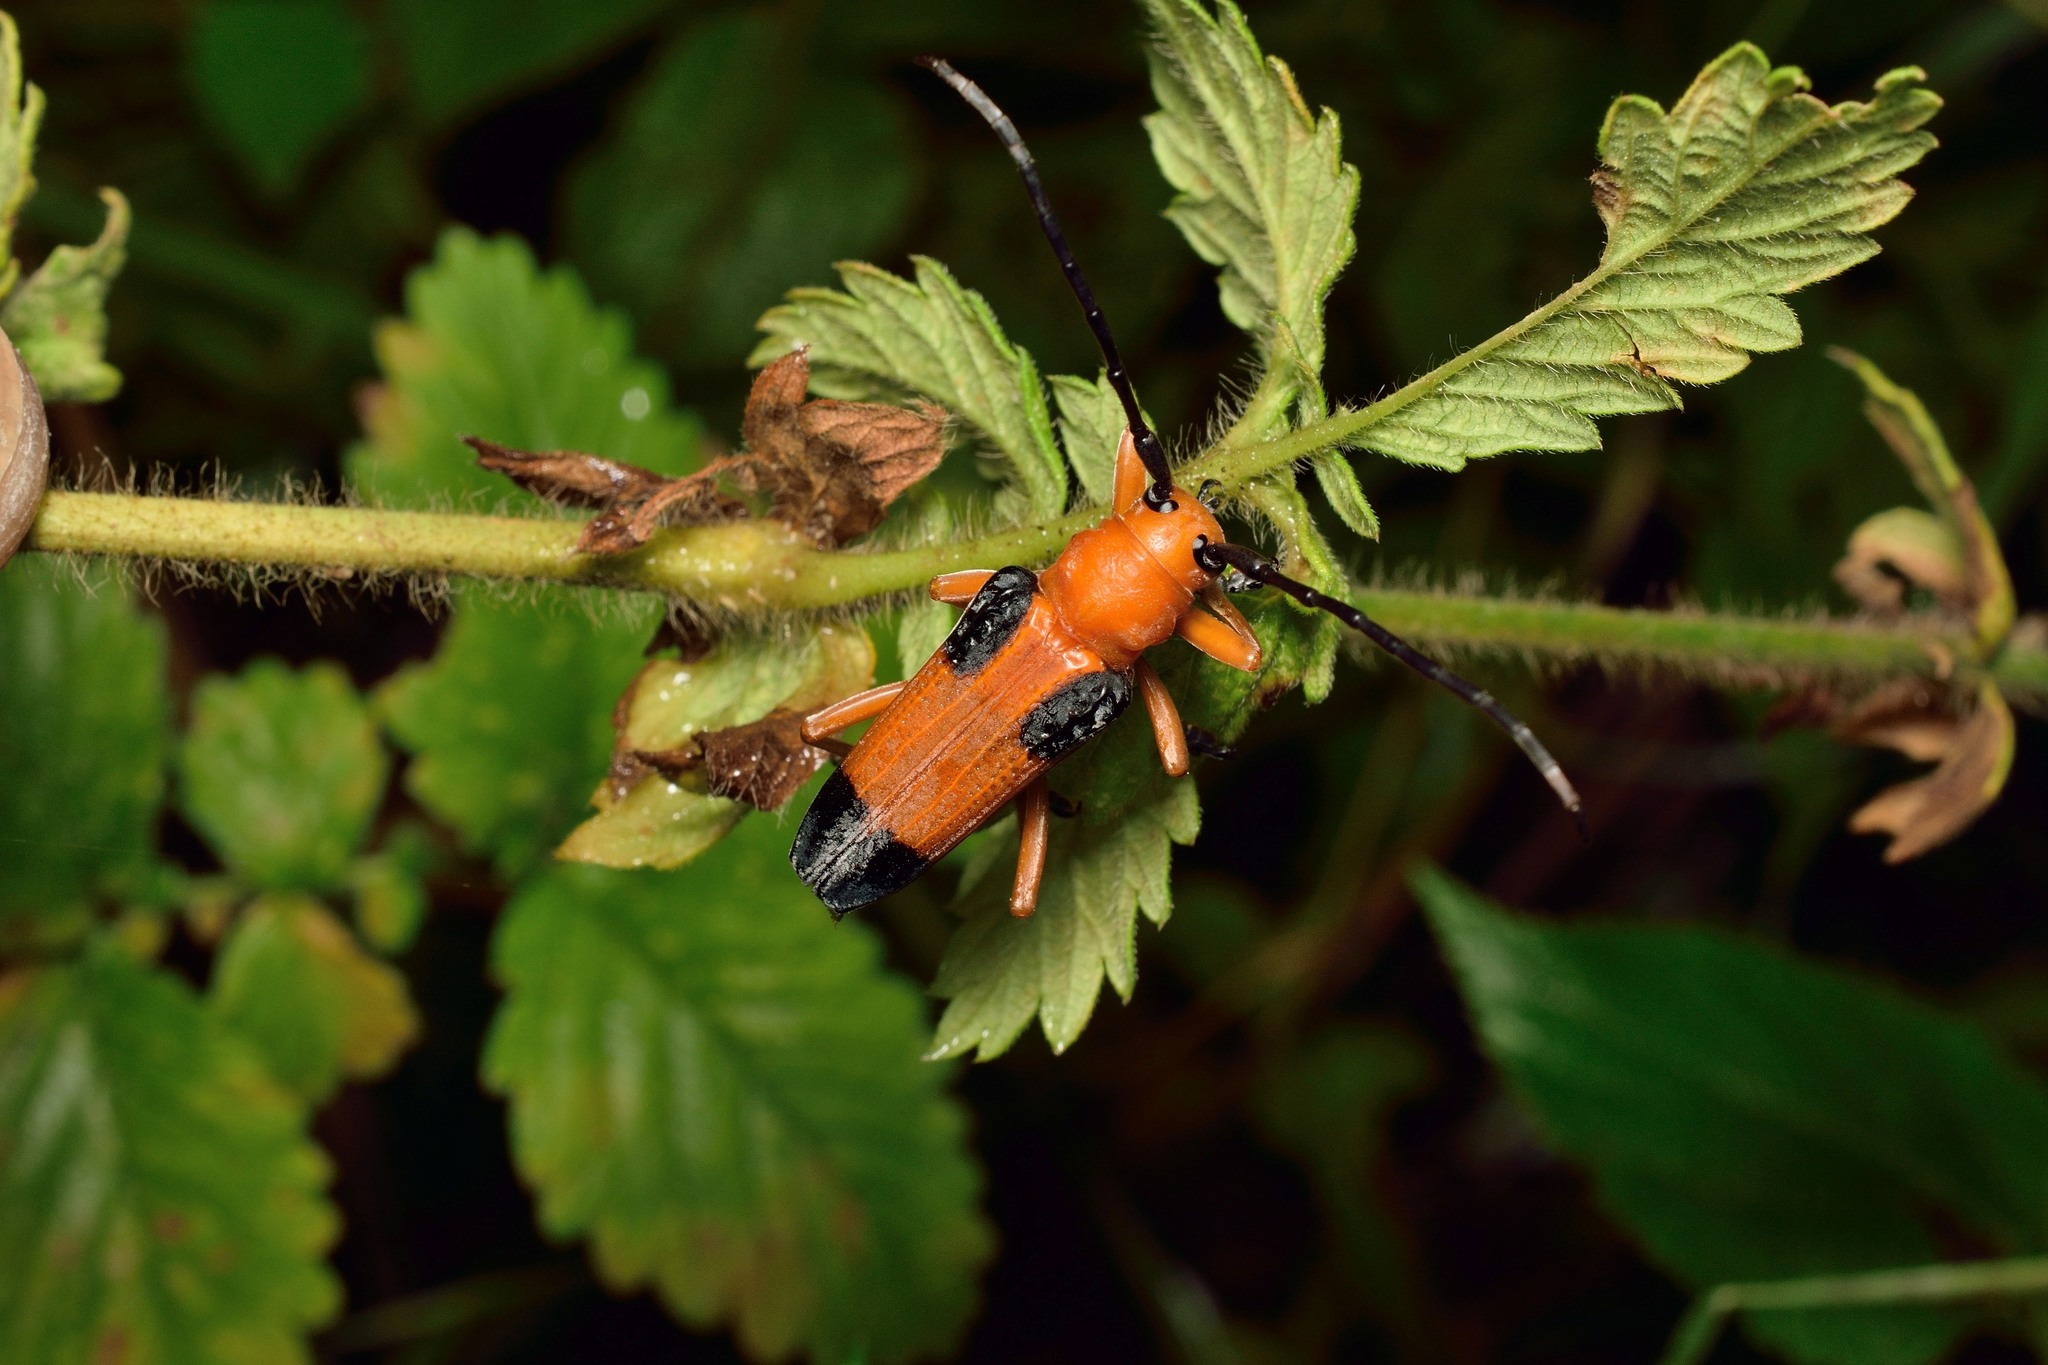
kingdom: Animalia
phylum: Arthropoda
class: Insecta
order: Coleoptera
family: Cerambycidae
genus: Stibara
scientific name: Stibara tetraspilota
